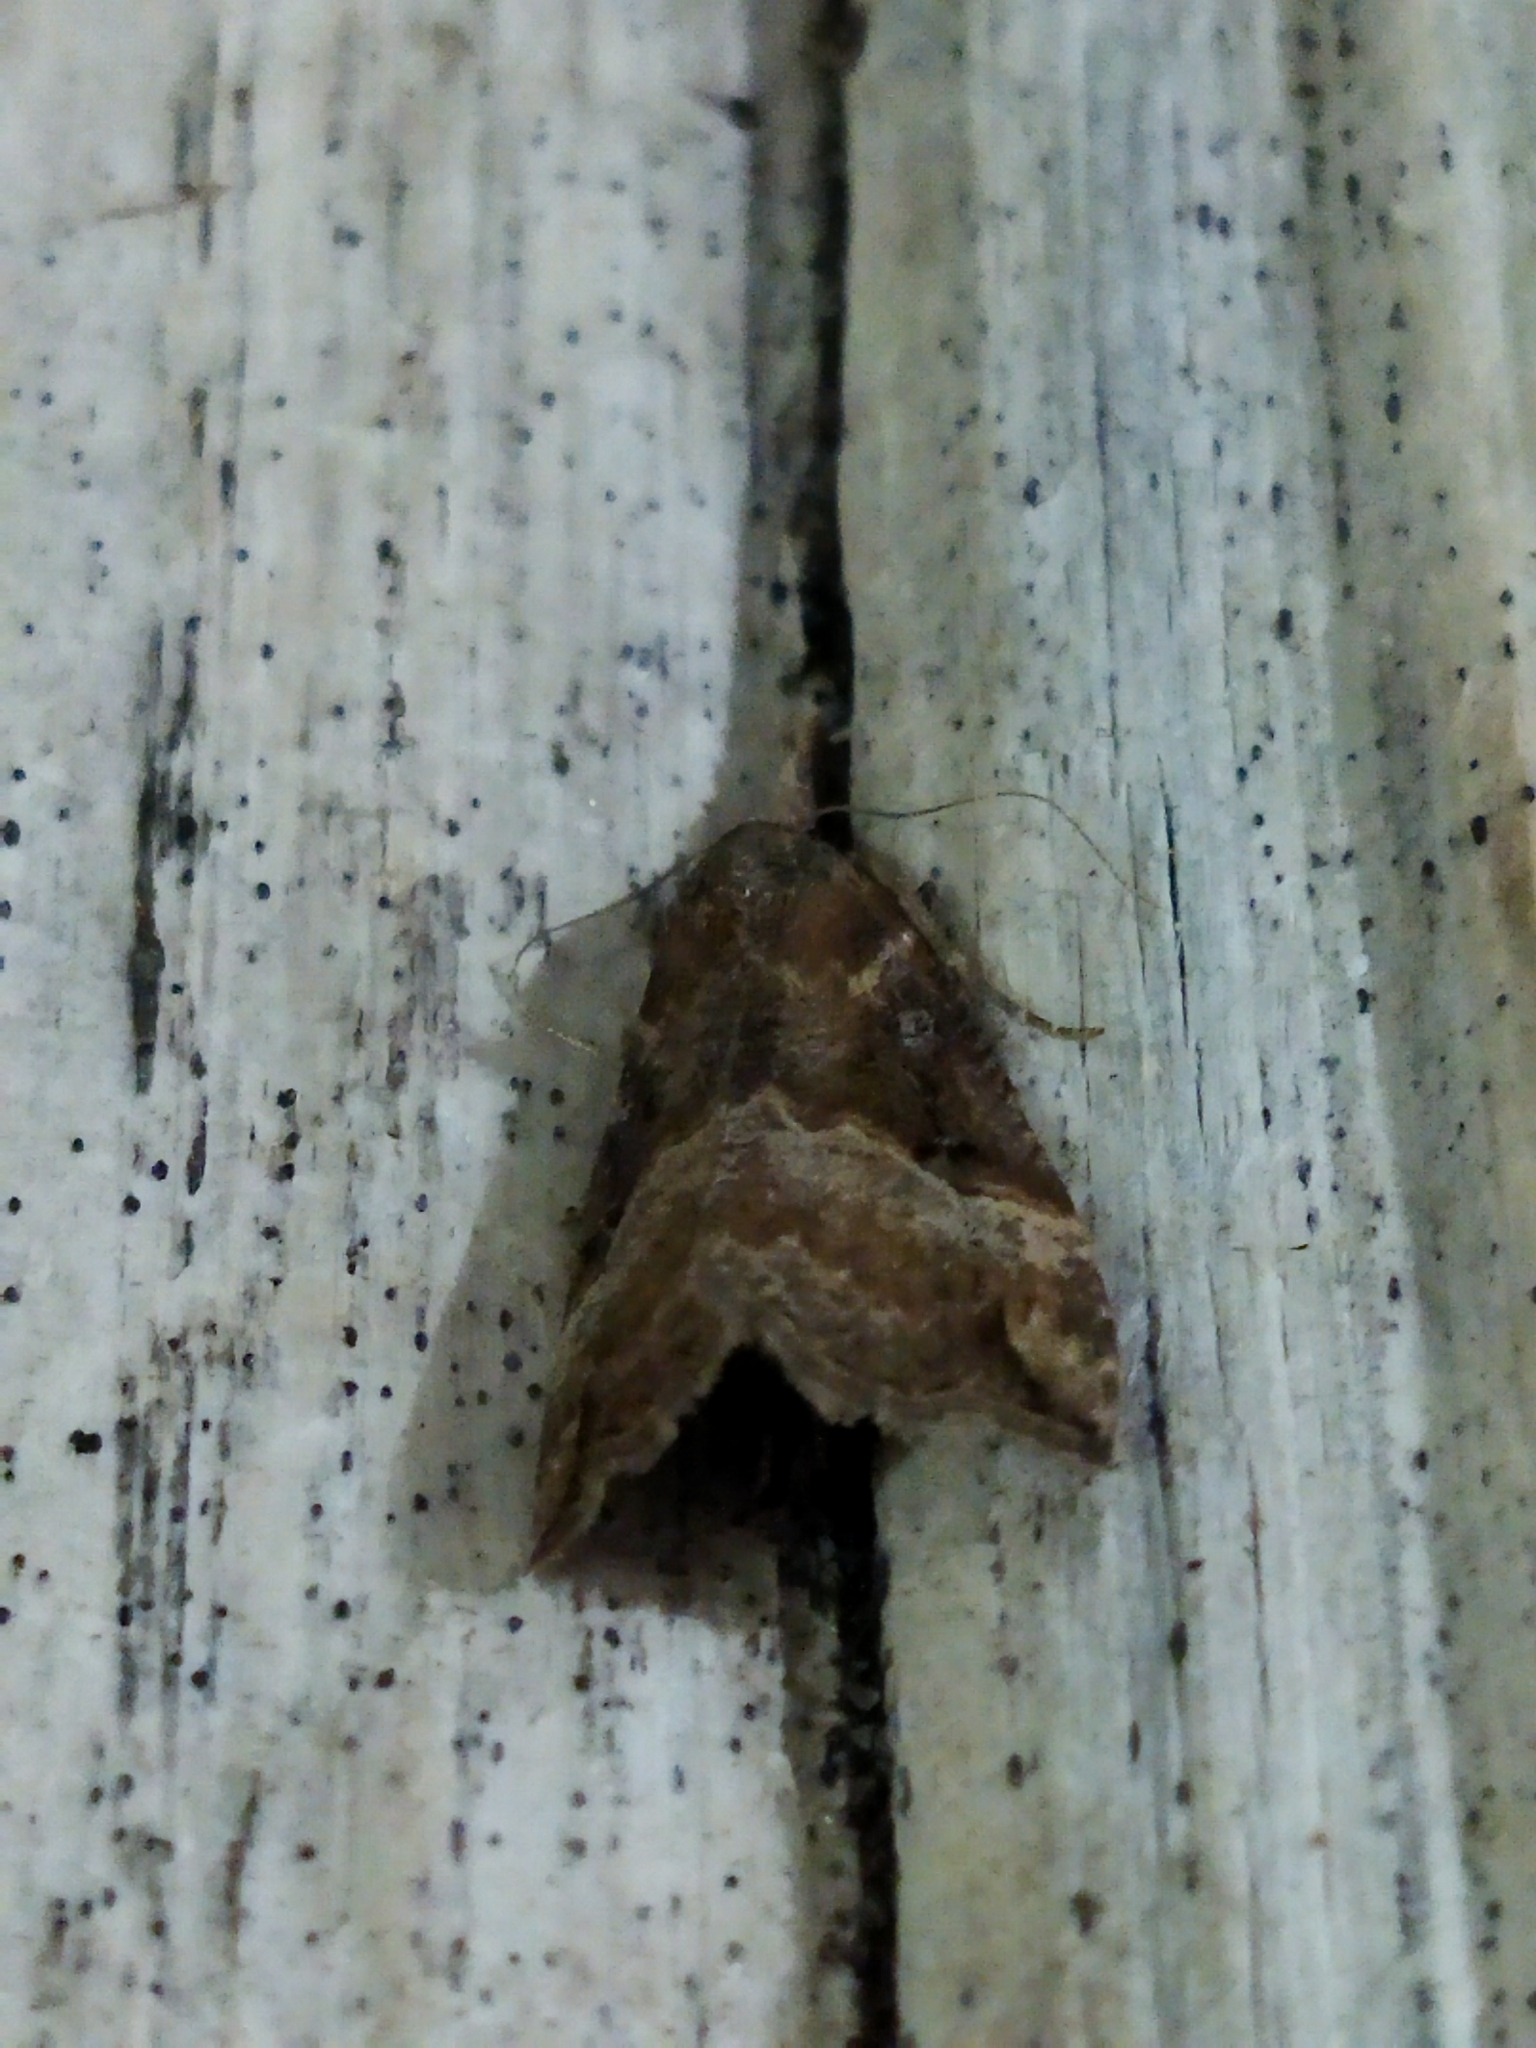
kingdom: Animalia
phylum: Arthropoda
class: Insecta
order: Lepidoptera
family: Erebidae
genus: Hypena
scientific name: Hypena rostralis
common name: Buttoned snout
